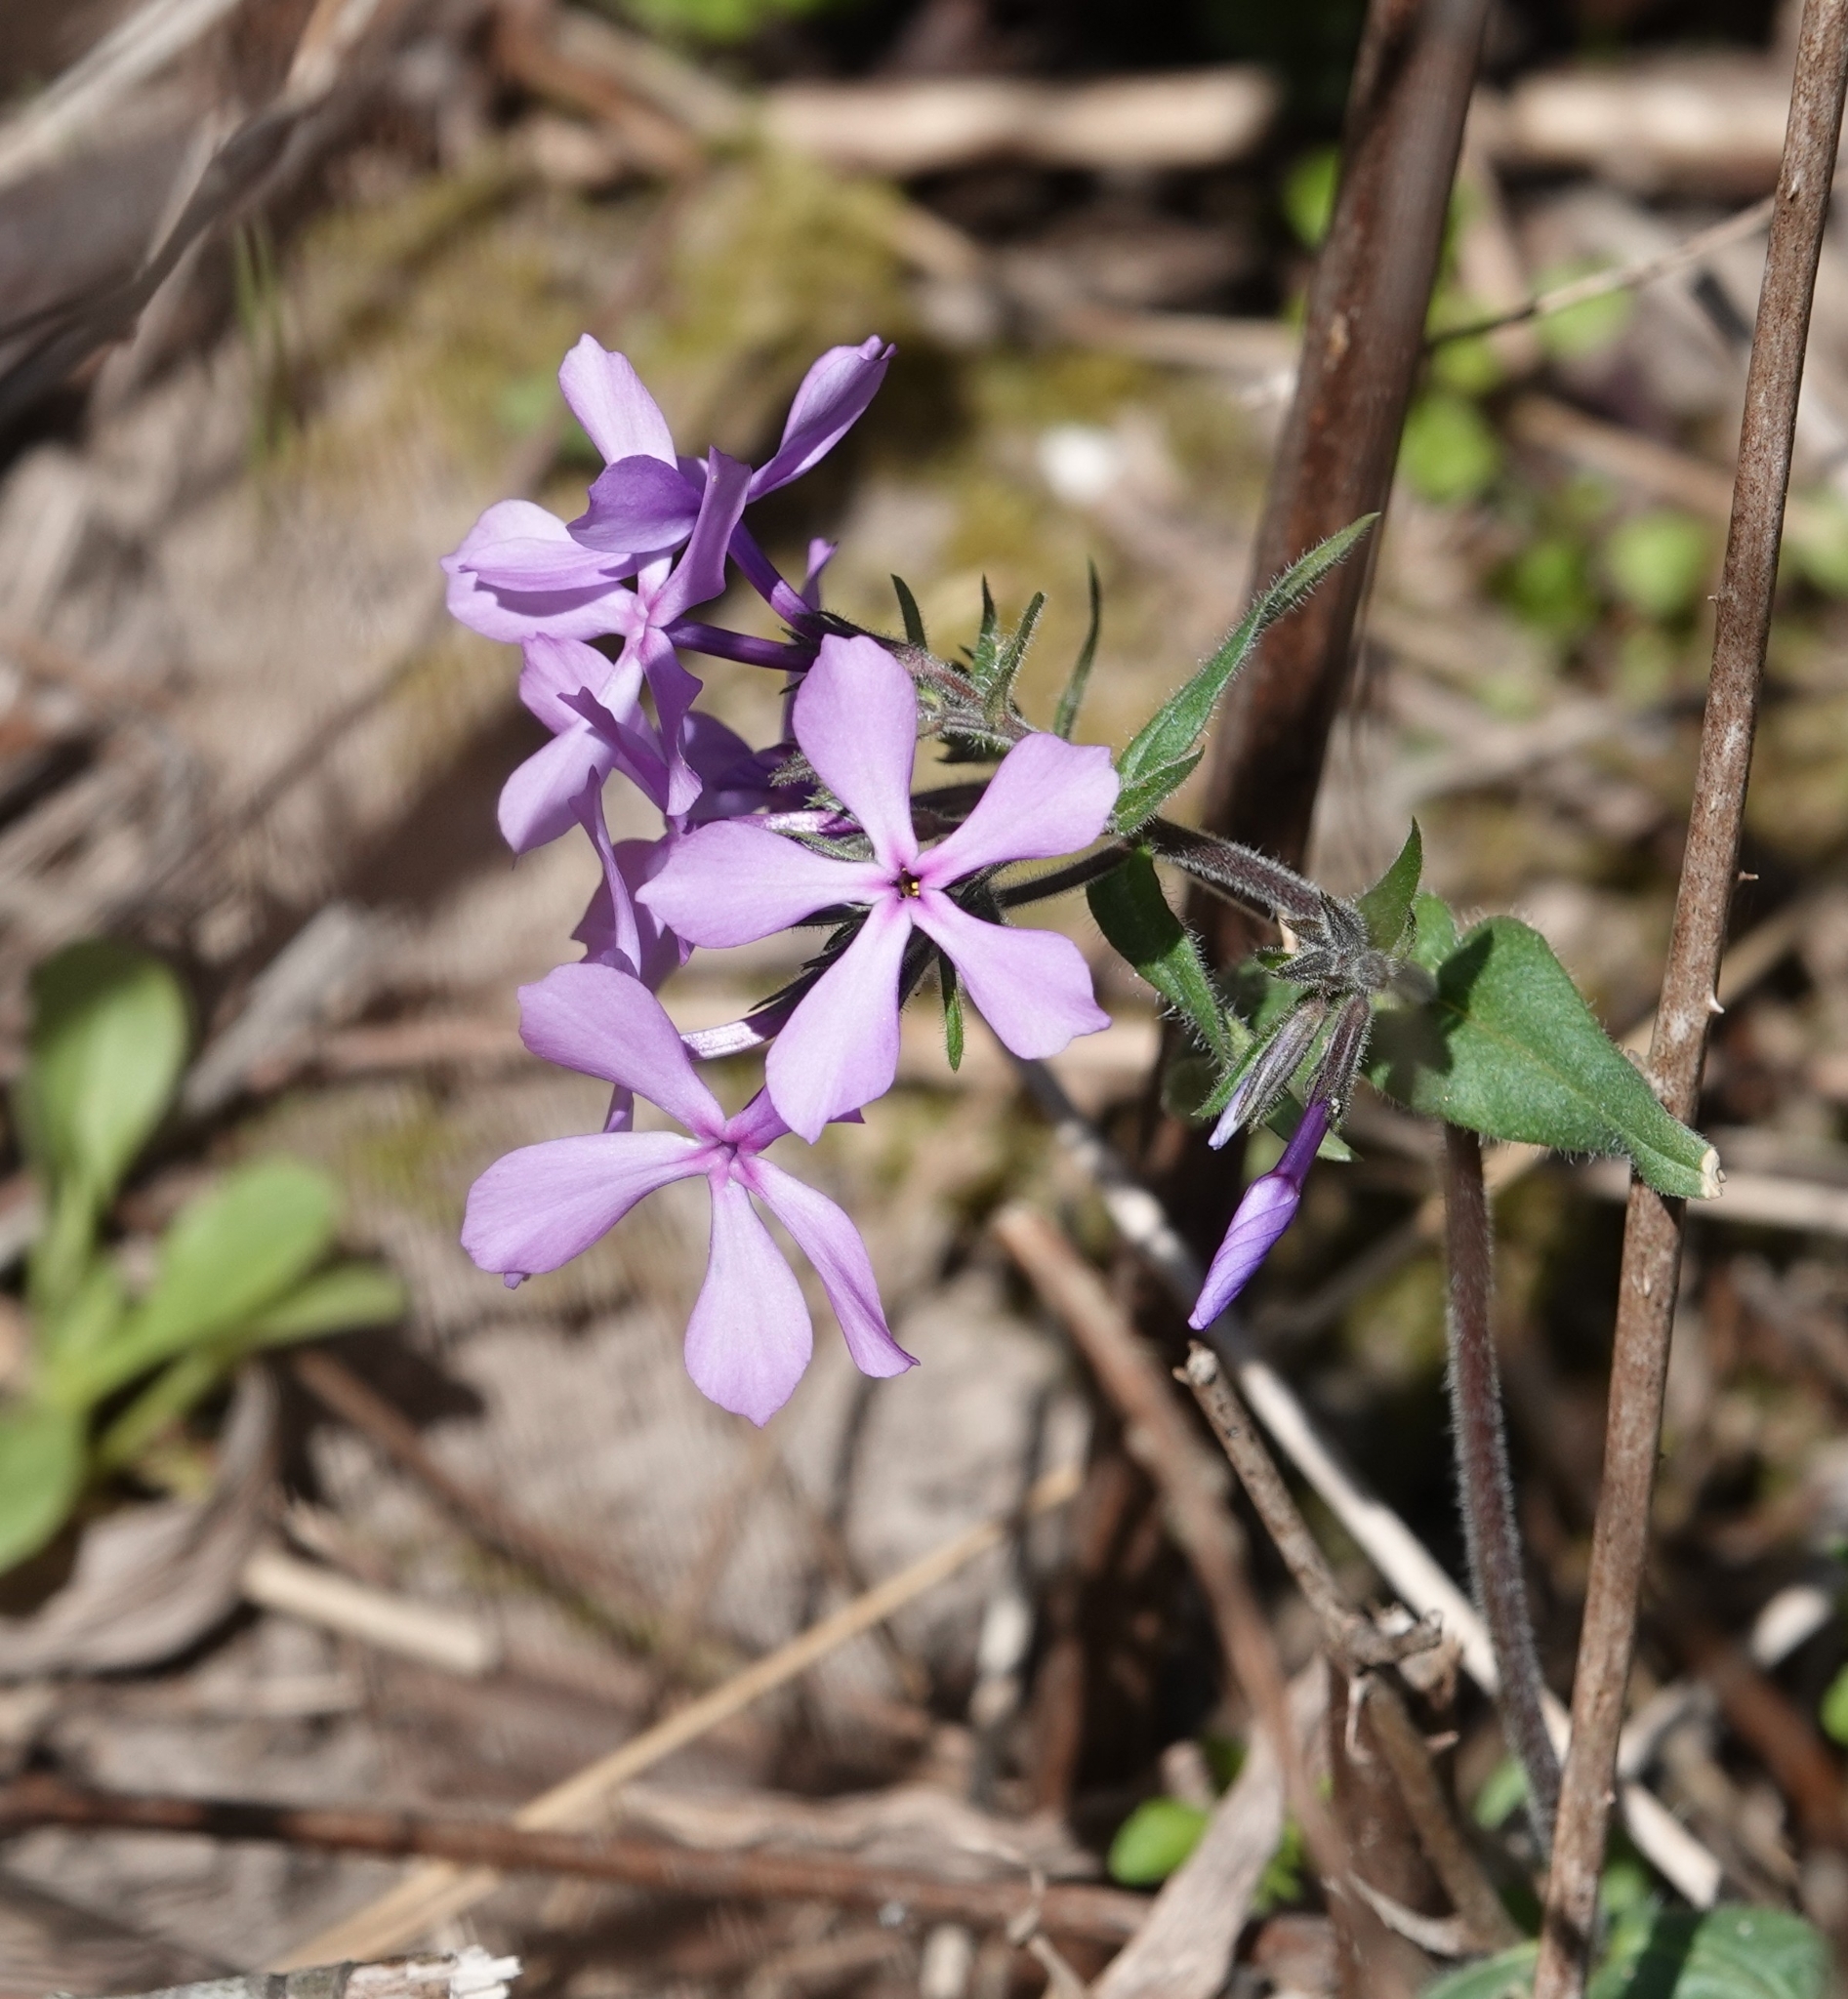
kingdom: Plantae
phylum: Tracheophyta
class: Magnoliopsida
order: Ericales
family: Polemoniaceae
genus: Phlox
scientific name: Phlox divaricata
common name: Blue phlox
